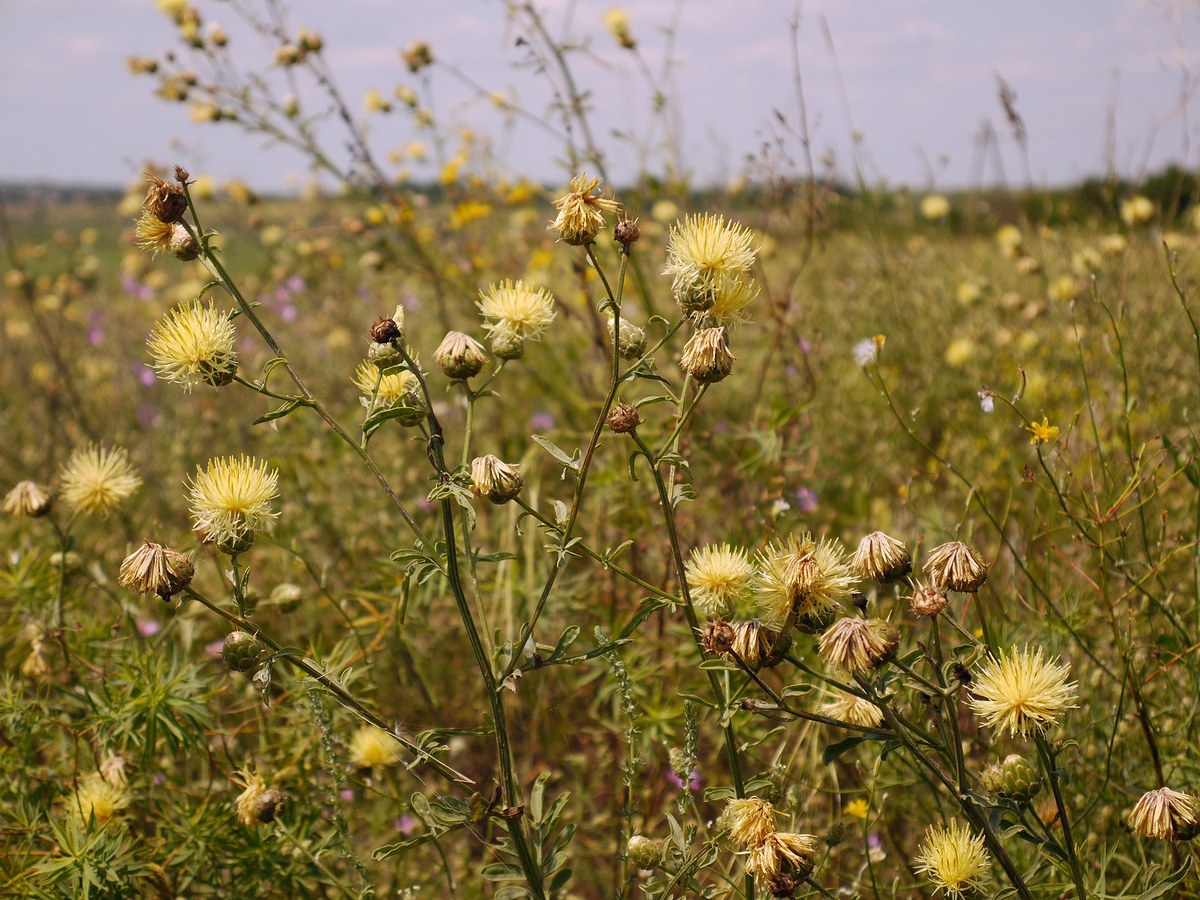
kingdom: Plantae
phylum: Tracheophyta
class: Magnoliopsida
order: Asterales
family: Asteraceae
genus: Centaurea
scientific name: Centaurea salonitana
